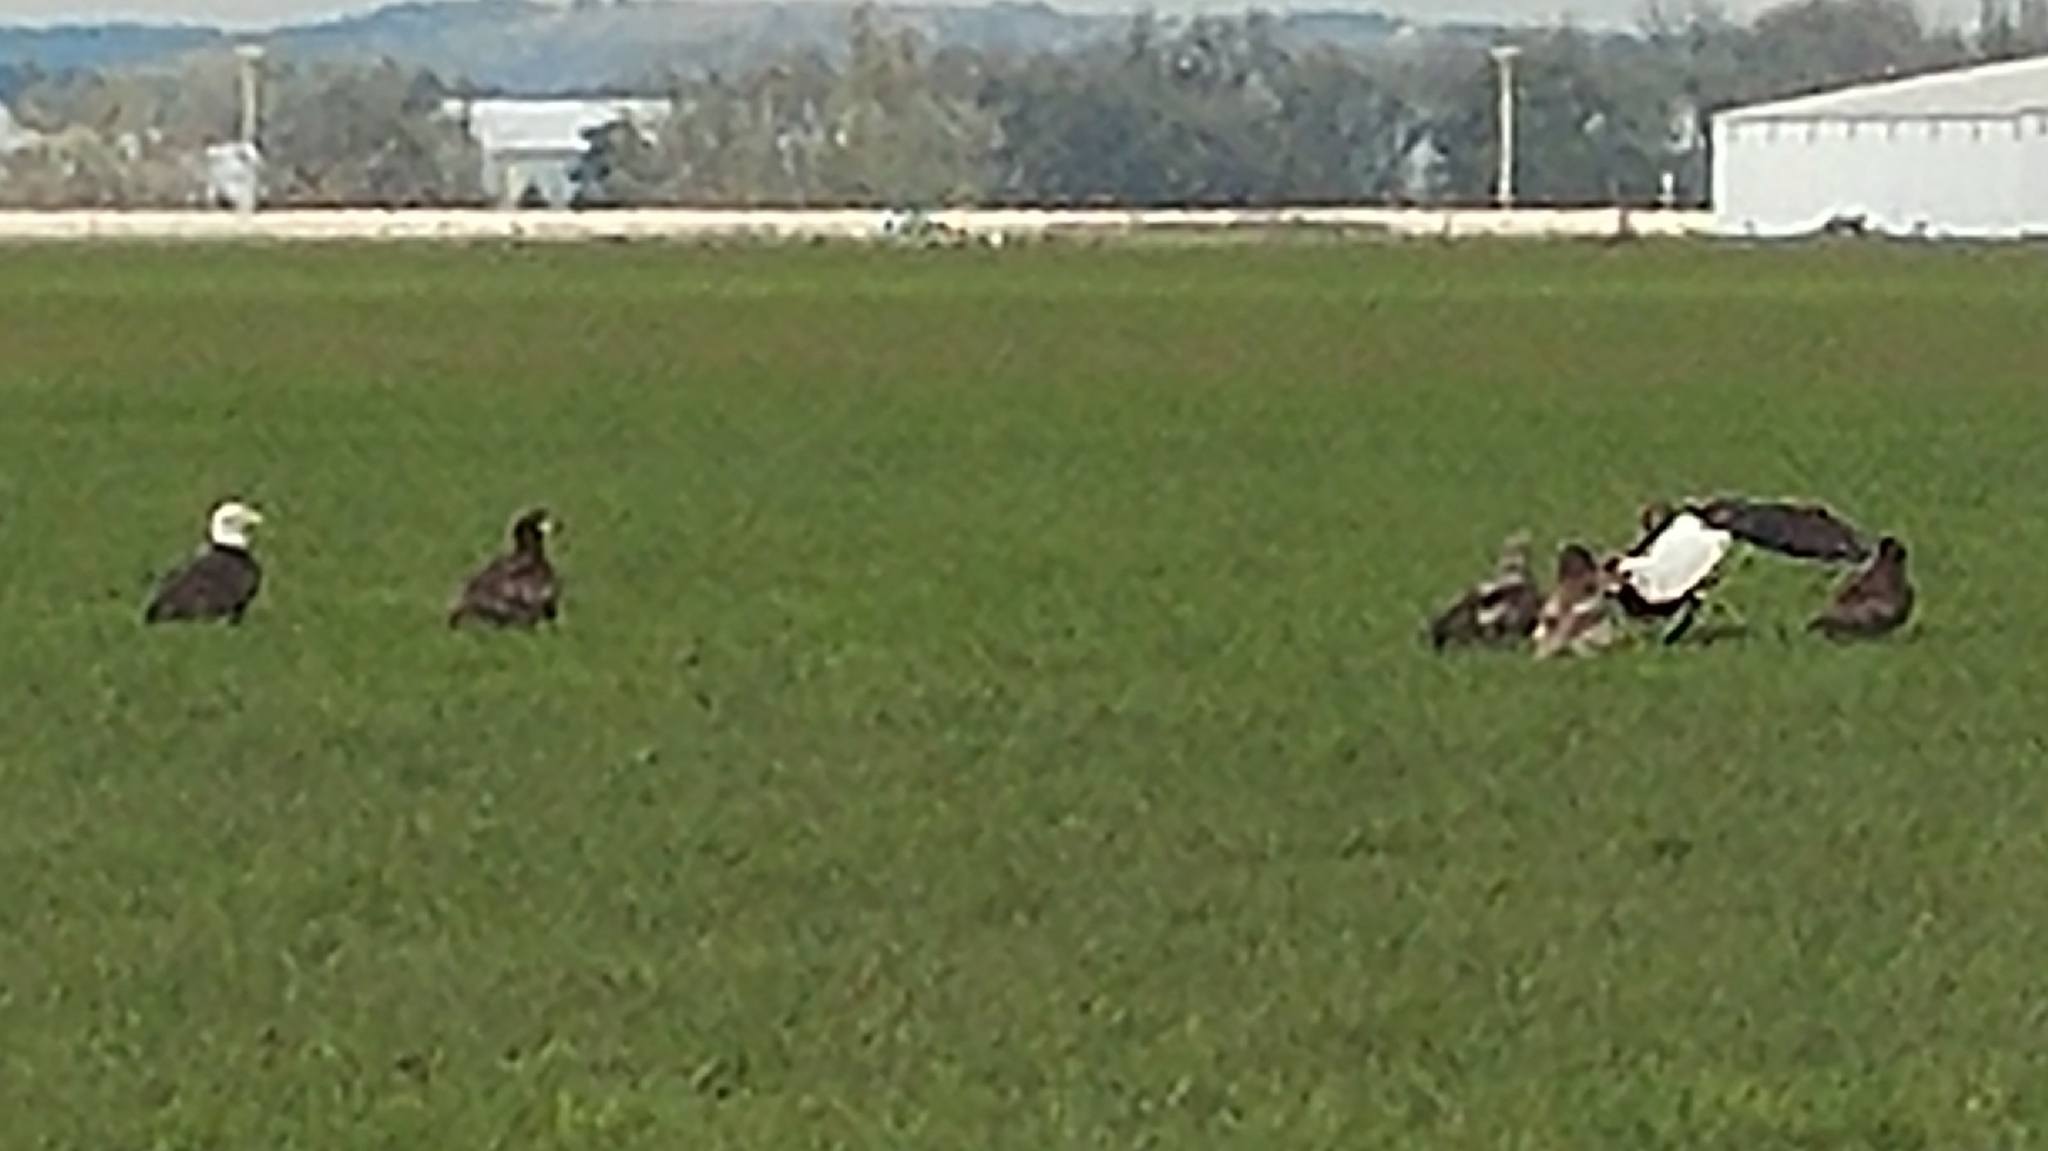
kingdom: Animalia
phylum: Chordata
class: Aves
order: Accipitriformes
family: Accipitridae
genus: Haliaeetus
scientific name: Haliaeetus leucocephalus
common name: Bald eagle
